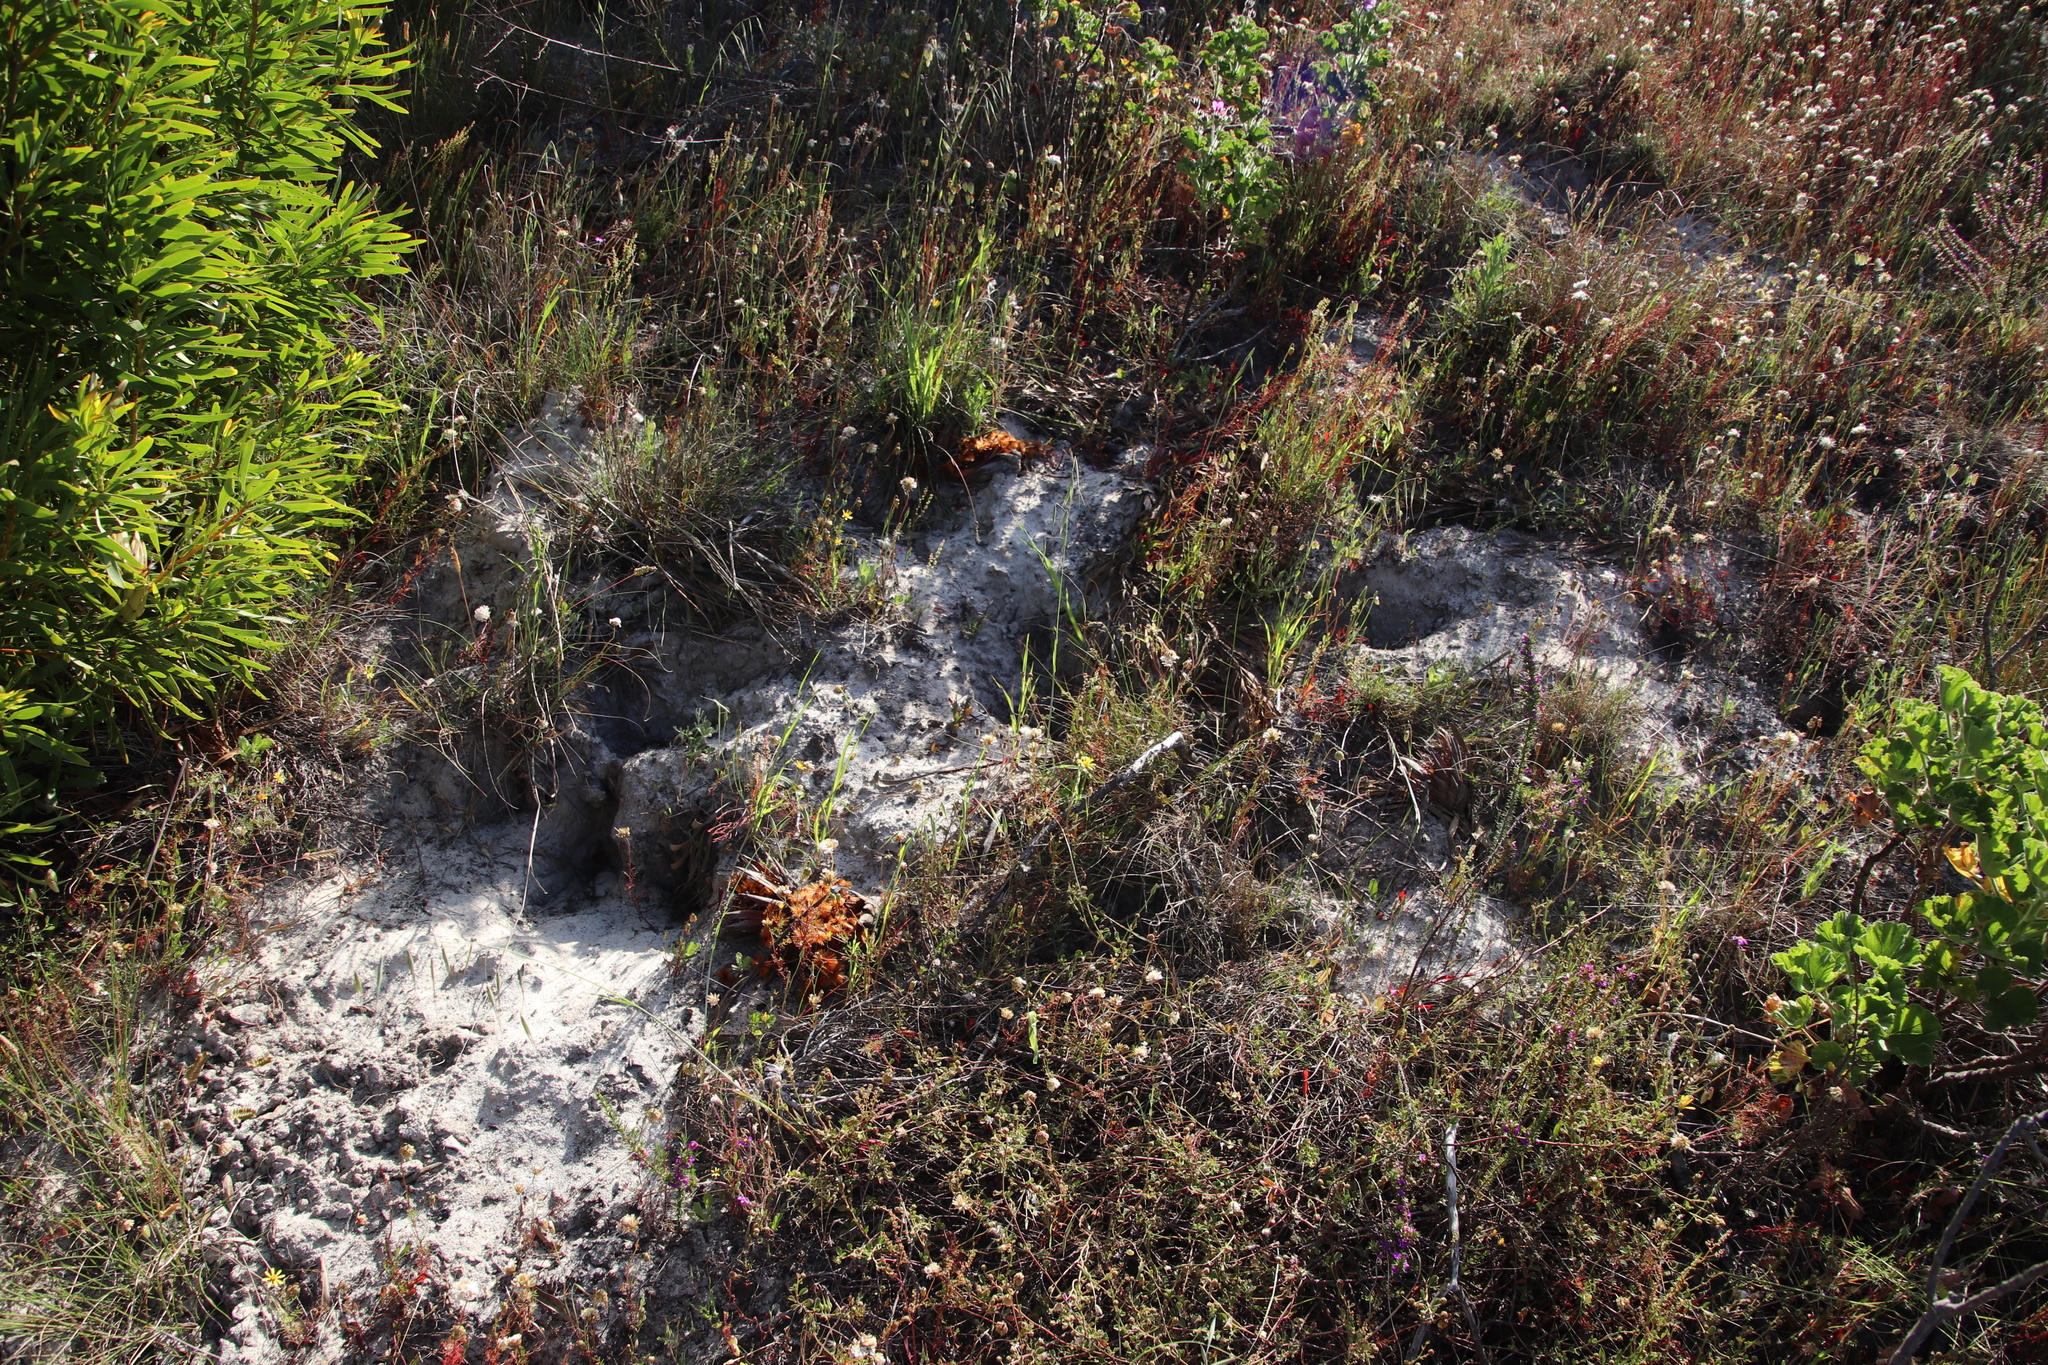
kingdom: Animalia
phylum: Chordata
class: Mammalia
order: Rodentia
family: Hystricidae
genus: Hystrix
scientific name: Hystrix africaeaustralis
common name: Cape porcupine
